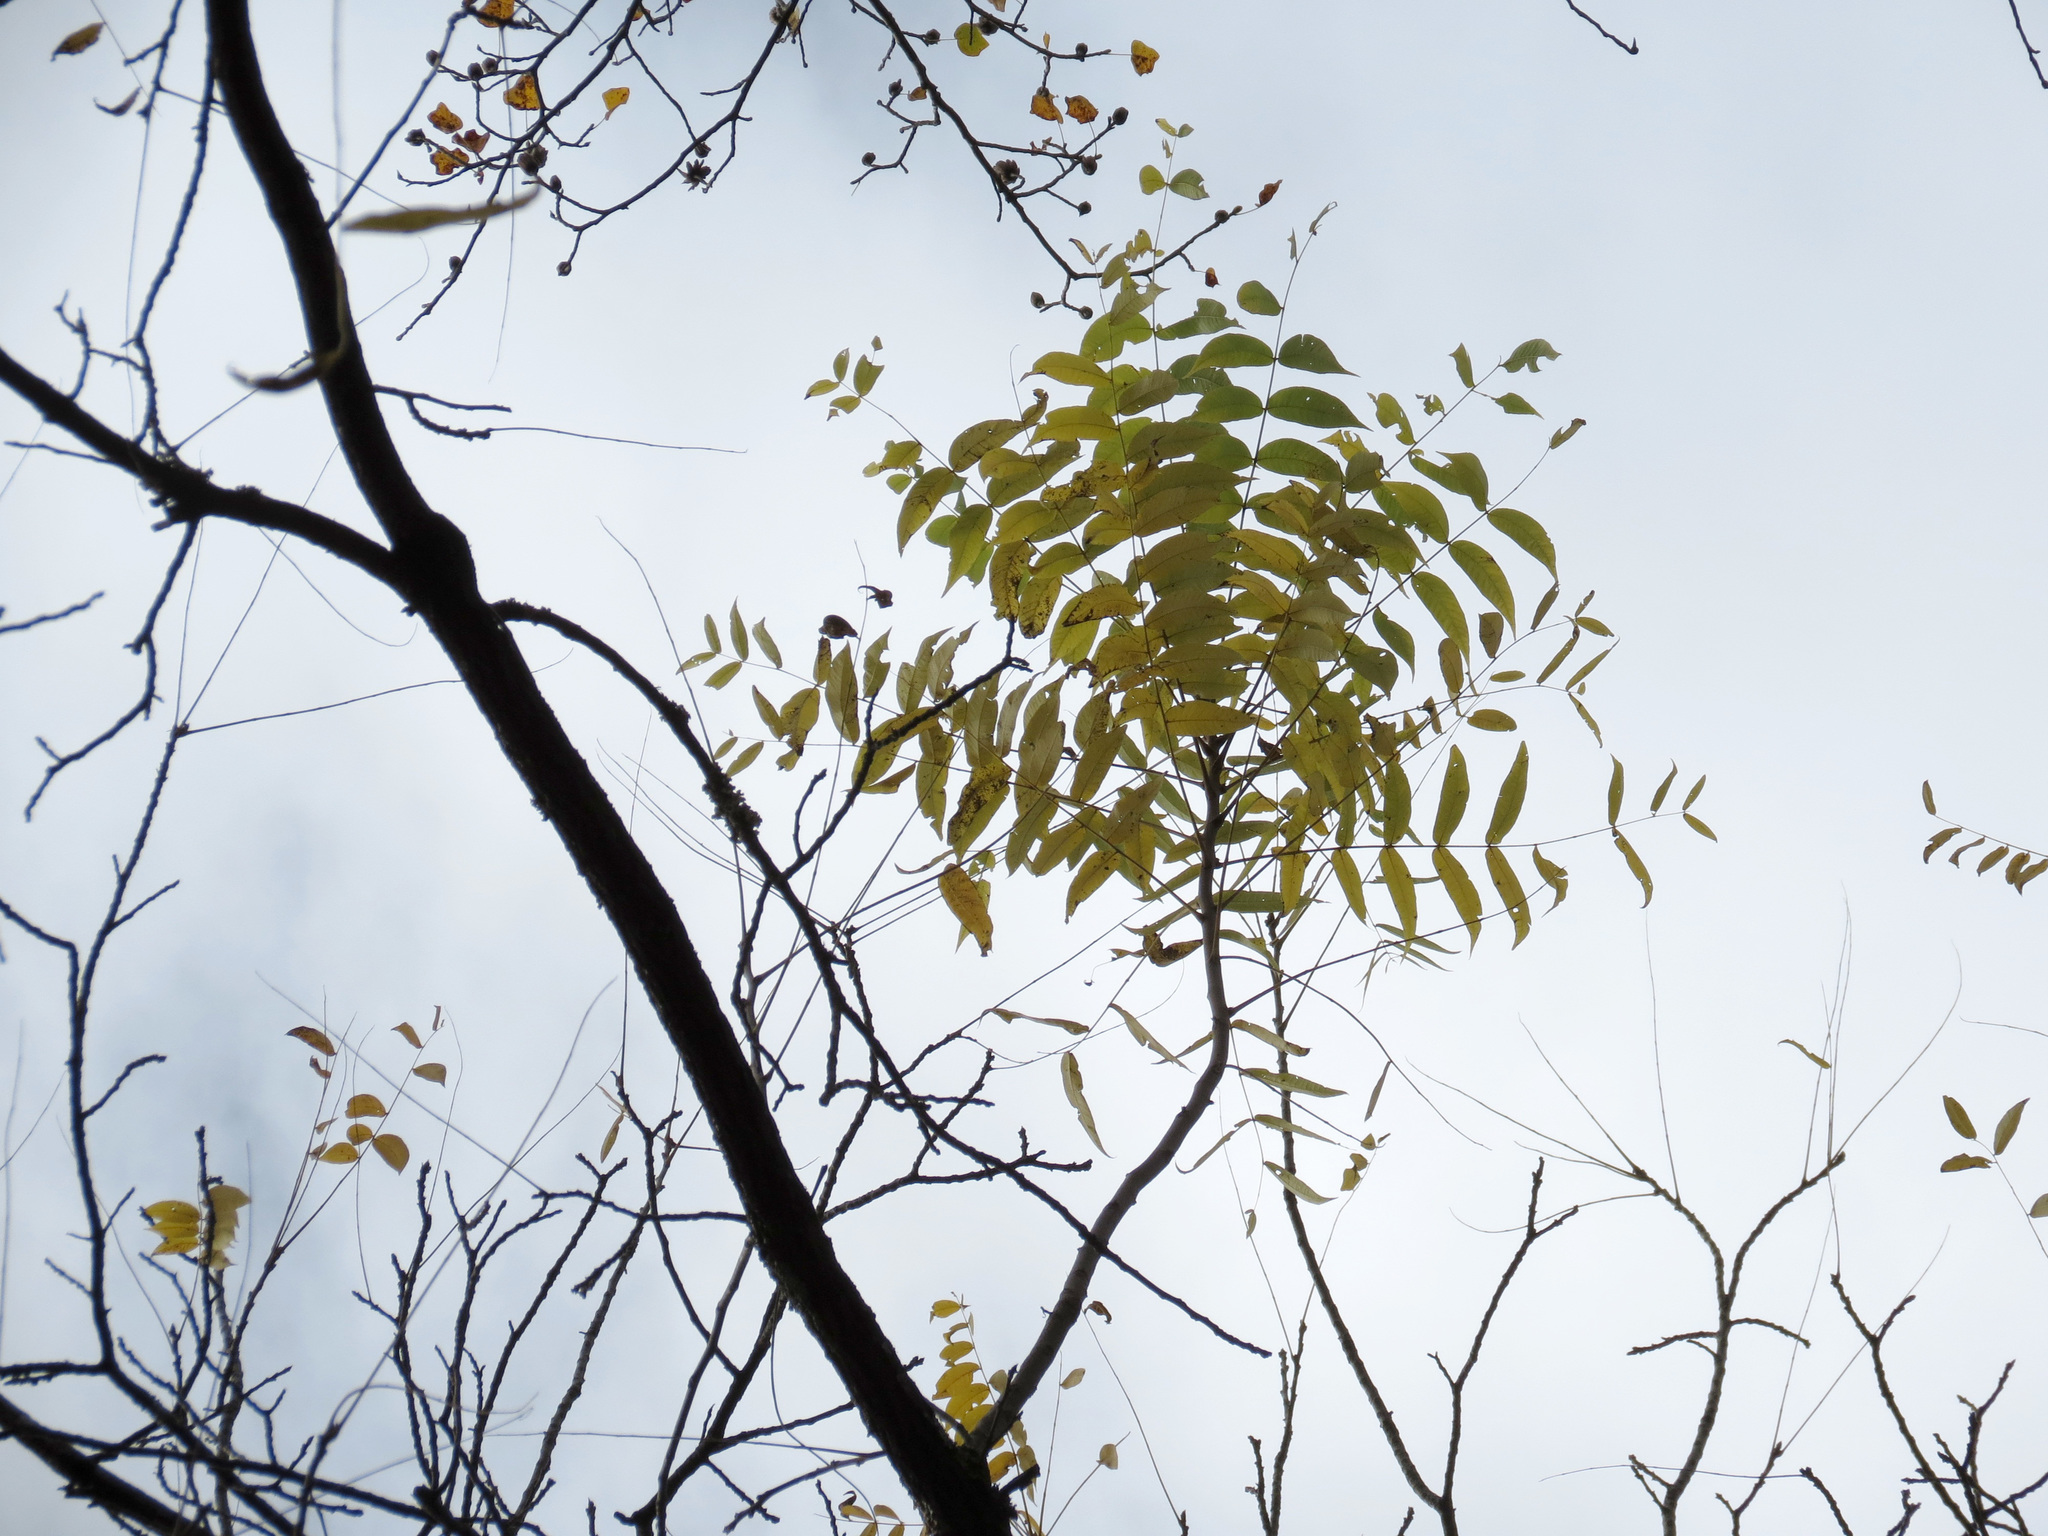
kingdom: Plantae
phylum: Tracheophyta
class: Magnoliopsida
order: Fagales
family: Juglandaceae
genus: Juglans
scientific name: Juglans nigra
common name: Black walnut
